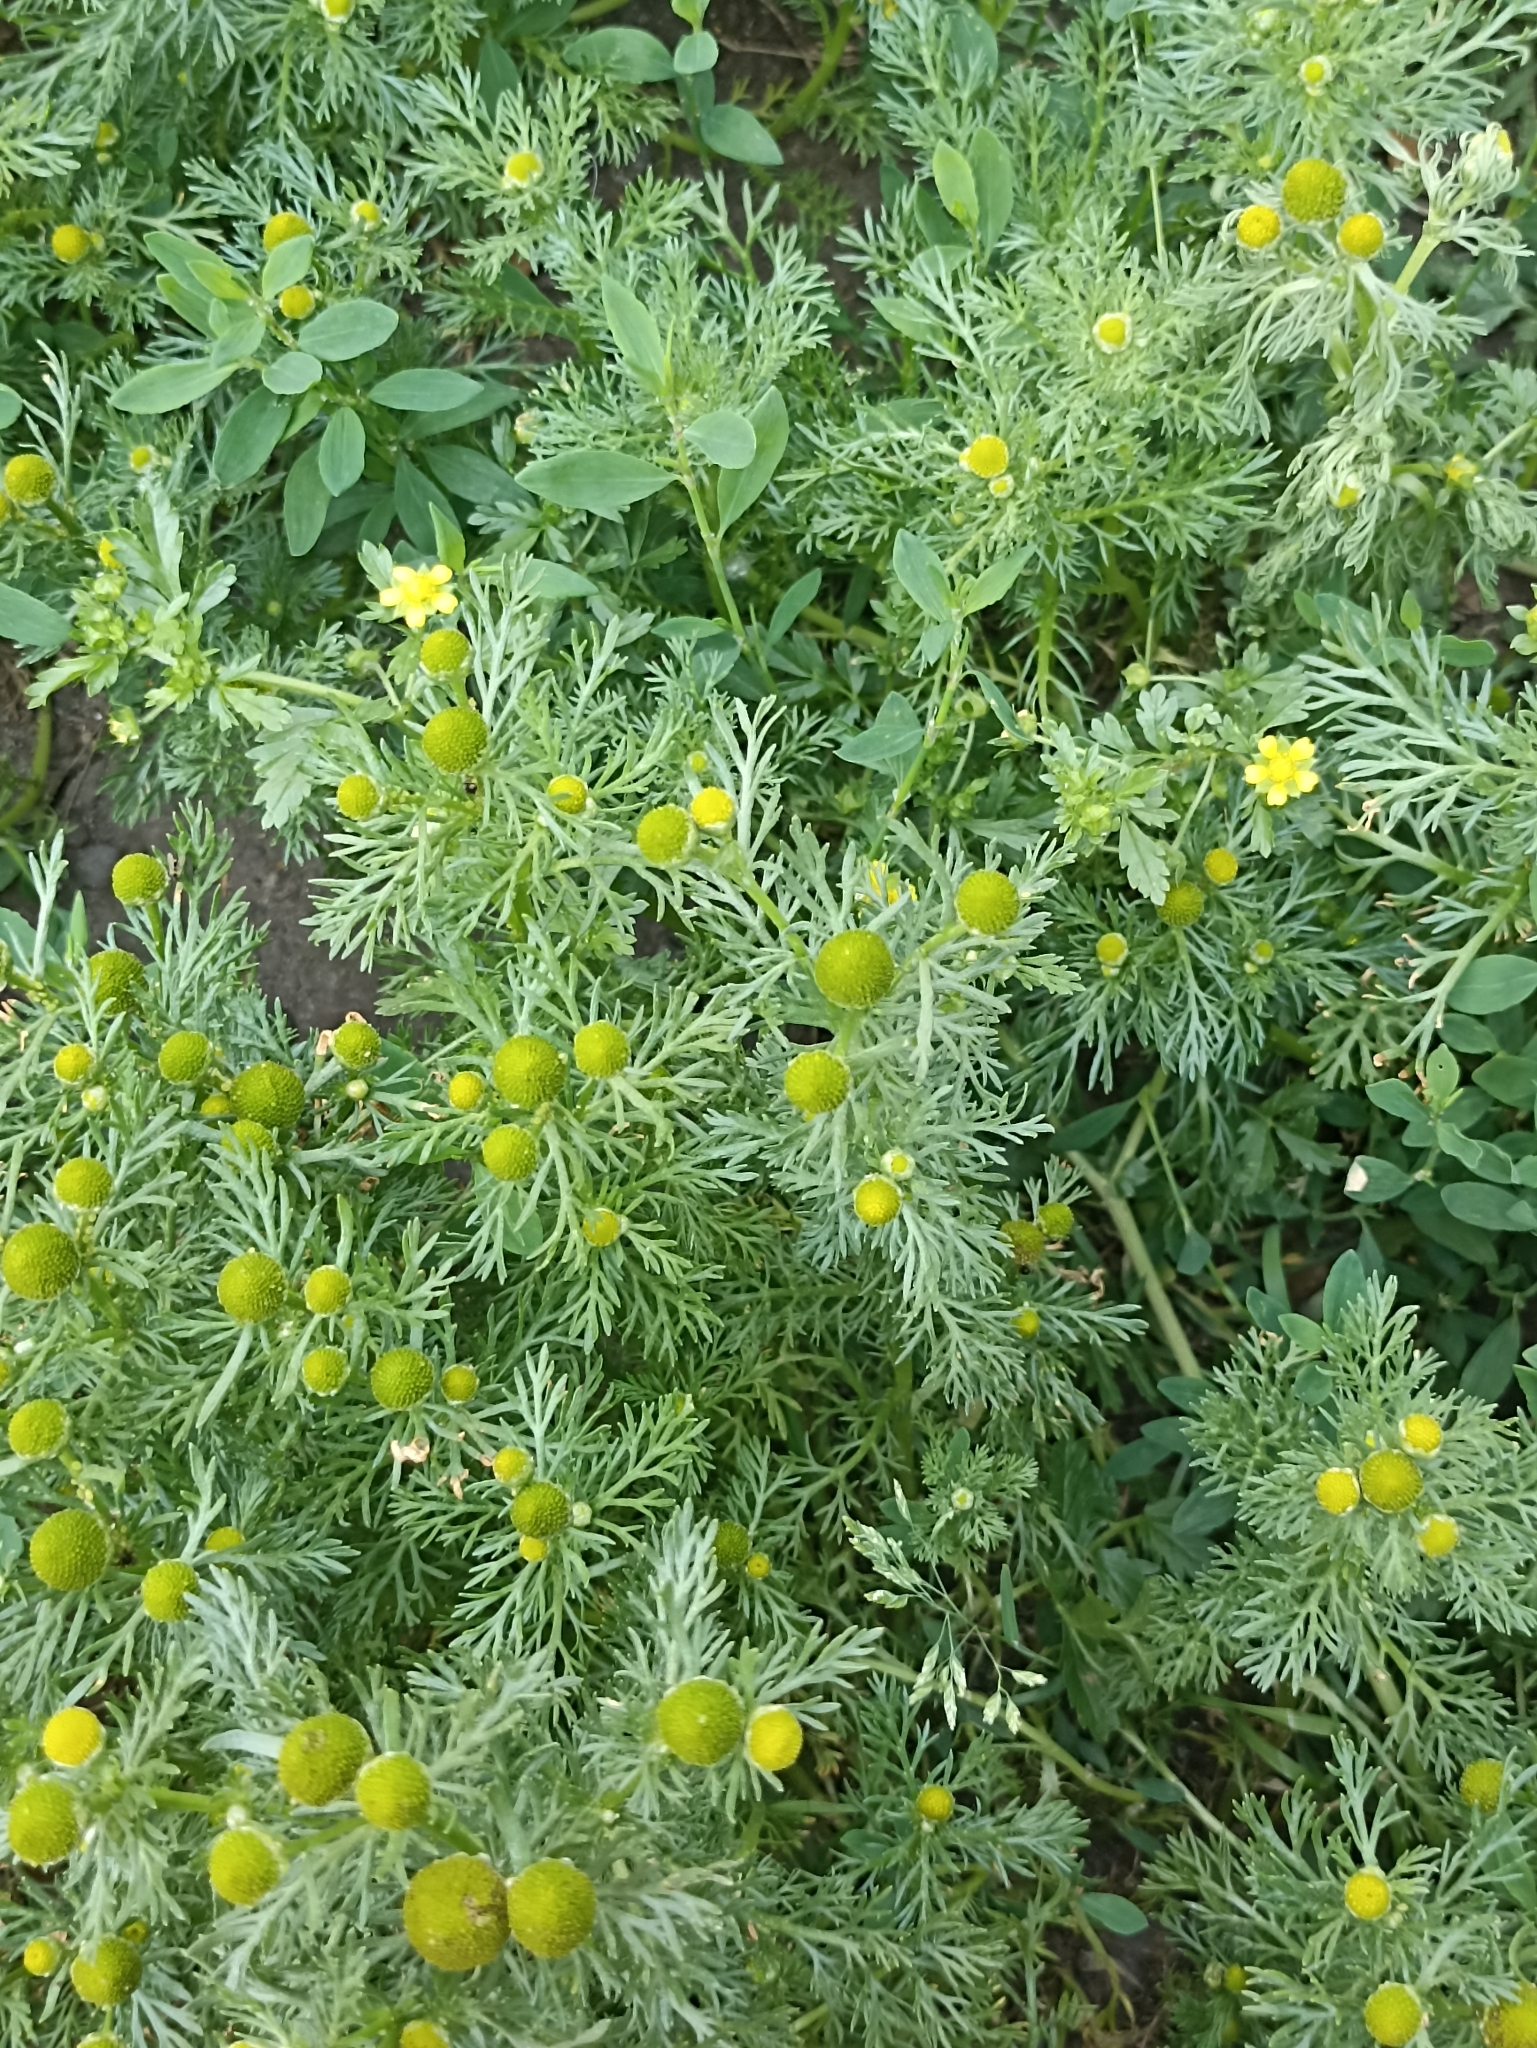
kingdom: Plantae
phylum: Tracheophyta
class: Magnoliopsida
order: Asterales
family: Asteraceae
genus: Matricaria
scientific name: Matricaria discoidea
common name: Disc mayweed
